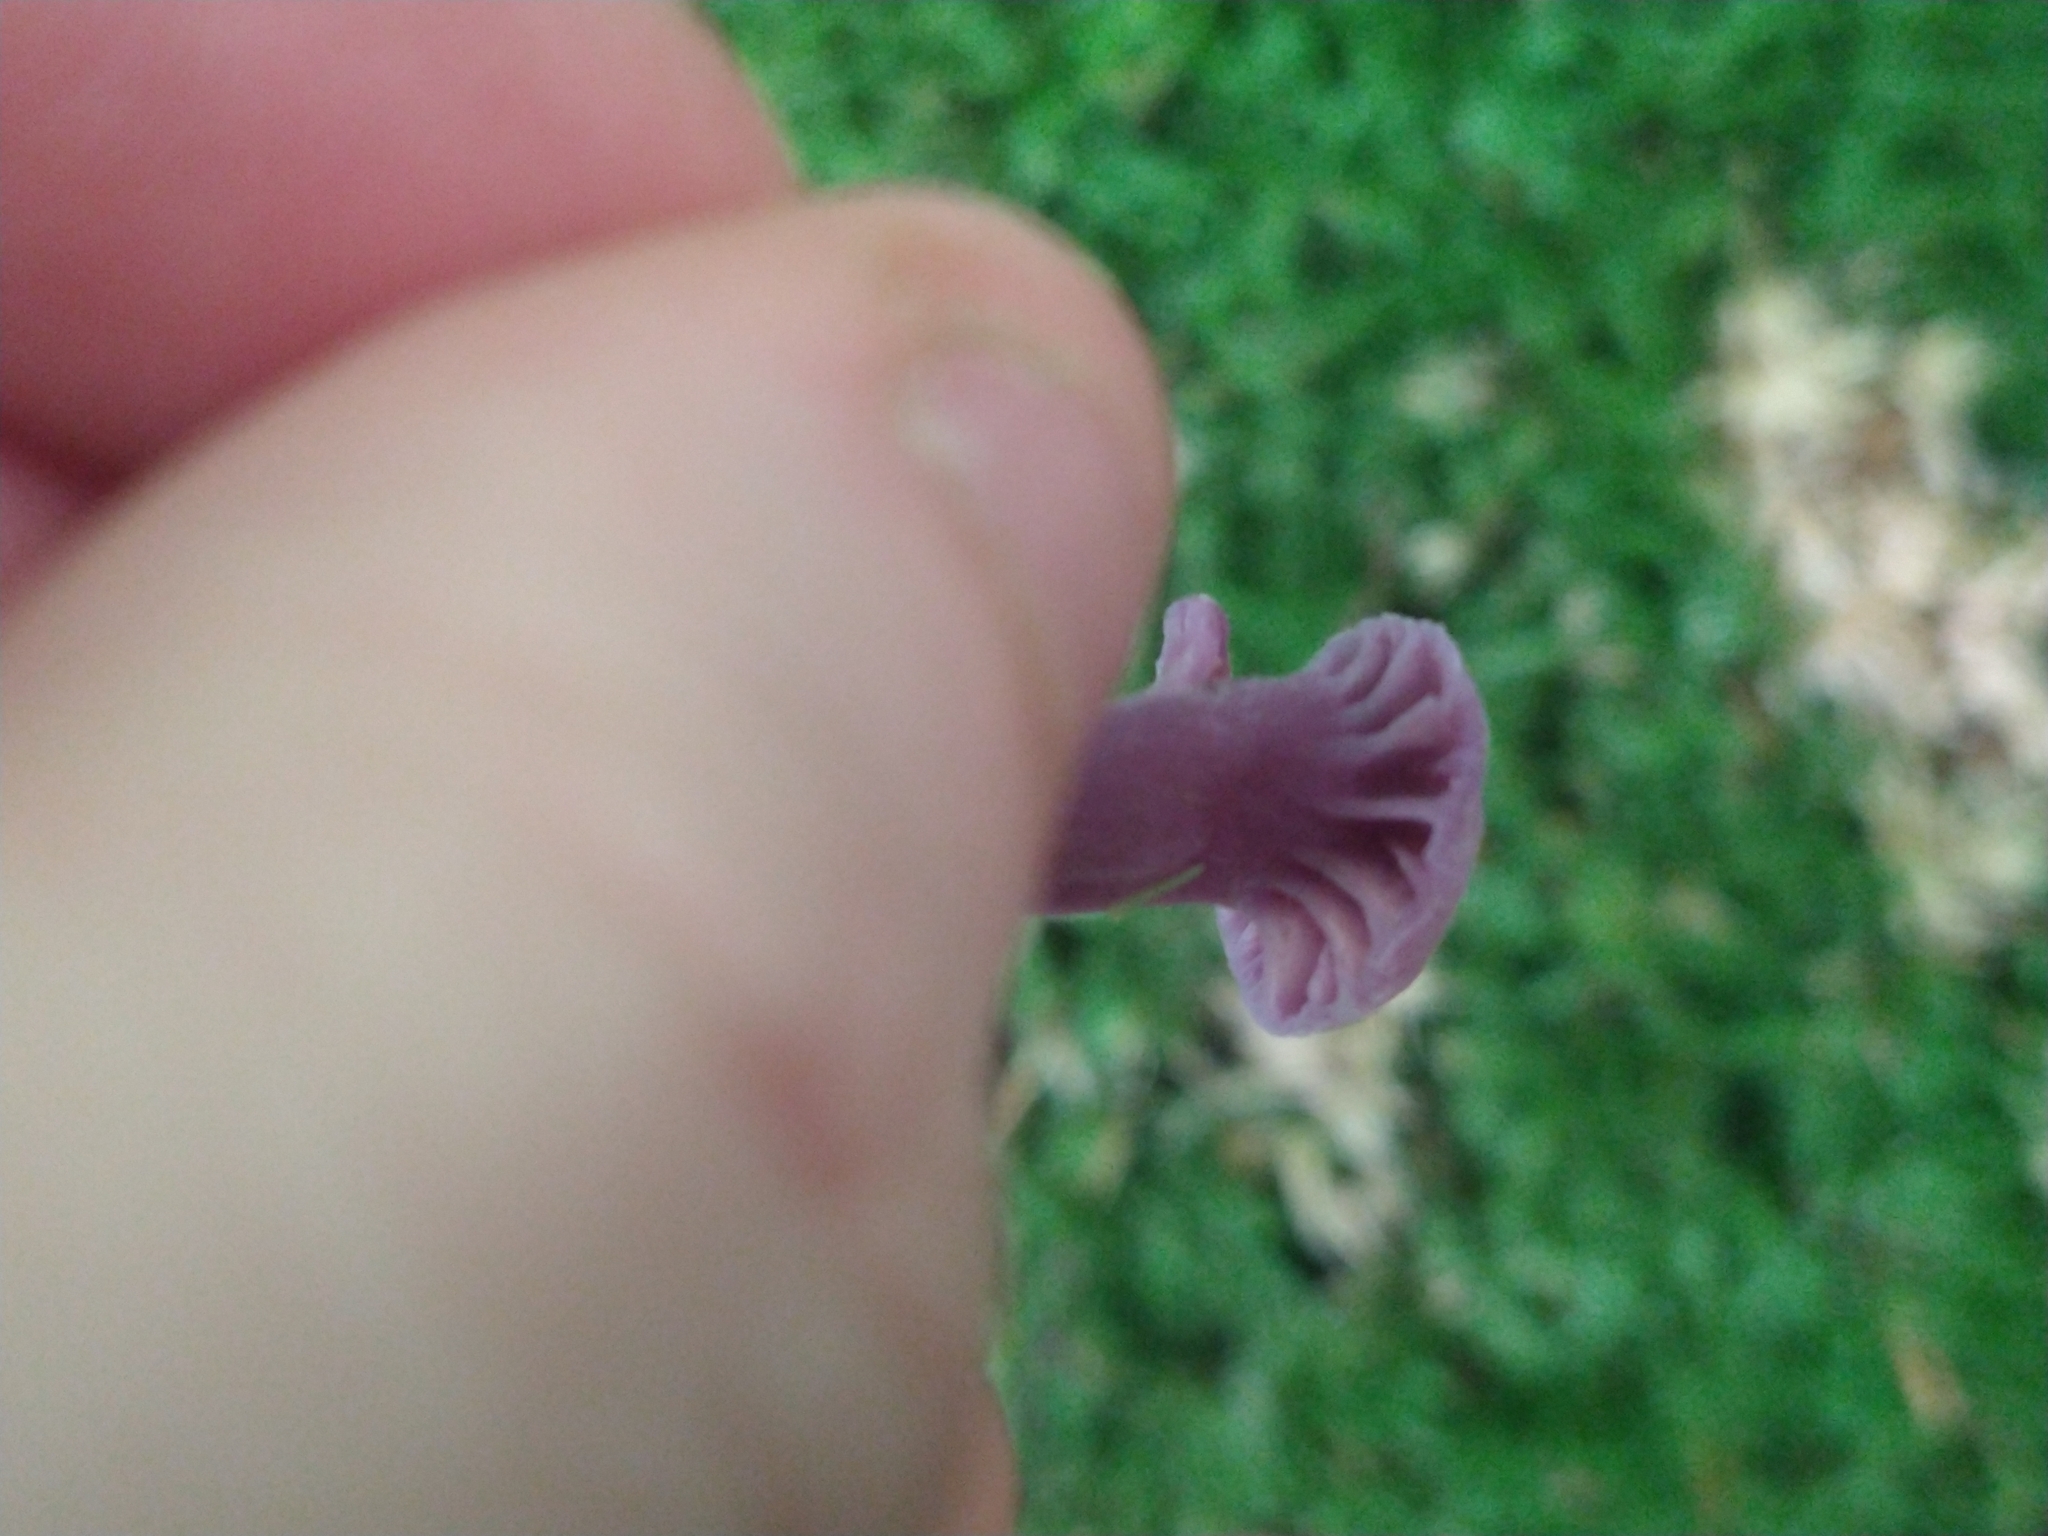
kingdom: Fungi
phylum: Basidiomycota
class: Agaricomycetes
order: Agaricales
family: Hydnangiaceae
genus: Laccaria
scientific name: Laccaria amethystina
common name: Amethyst deceiver
